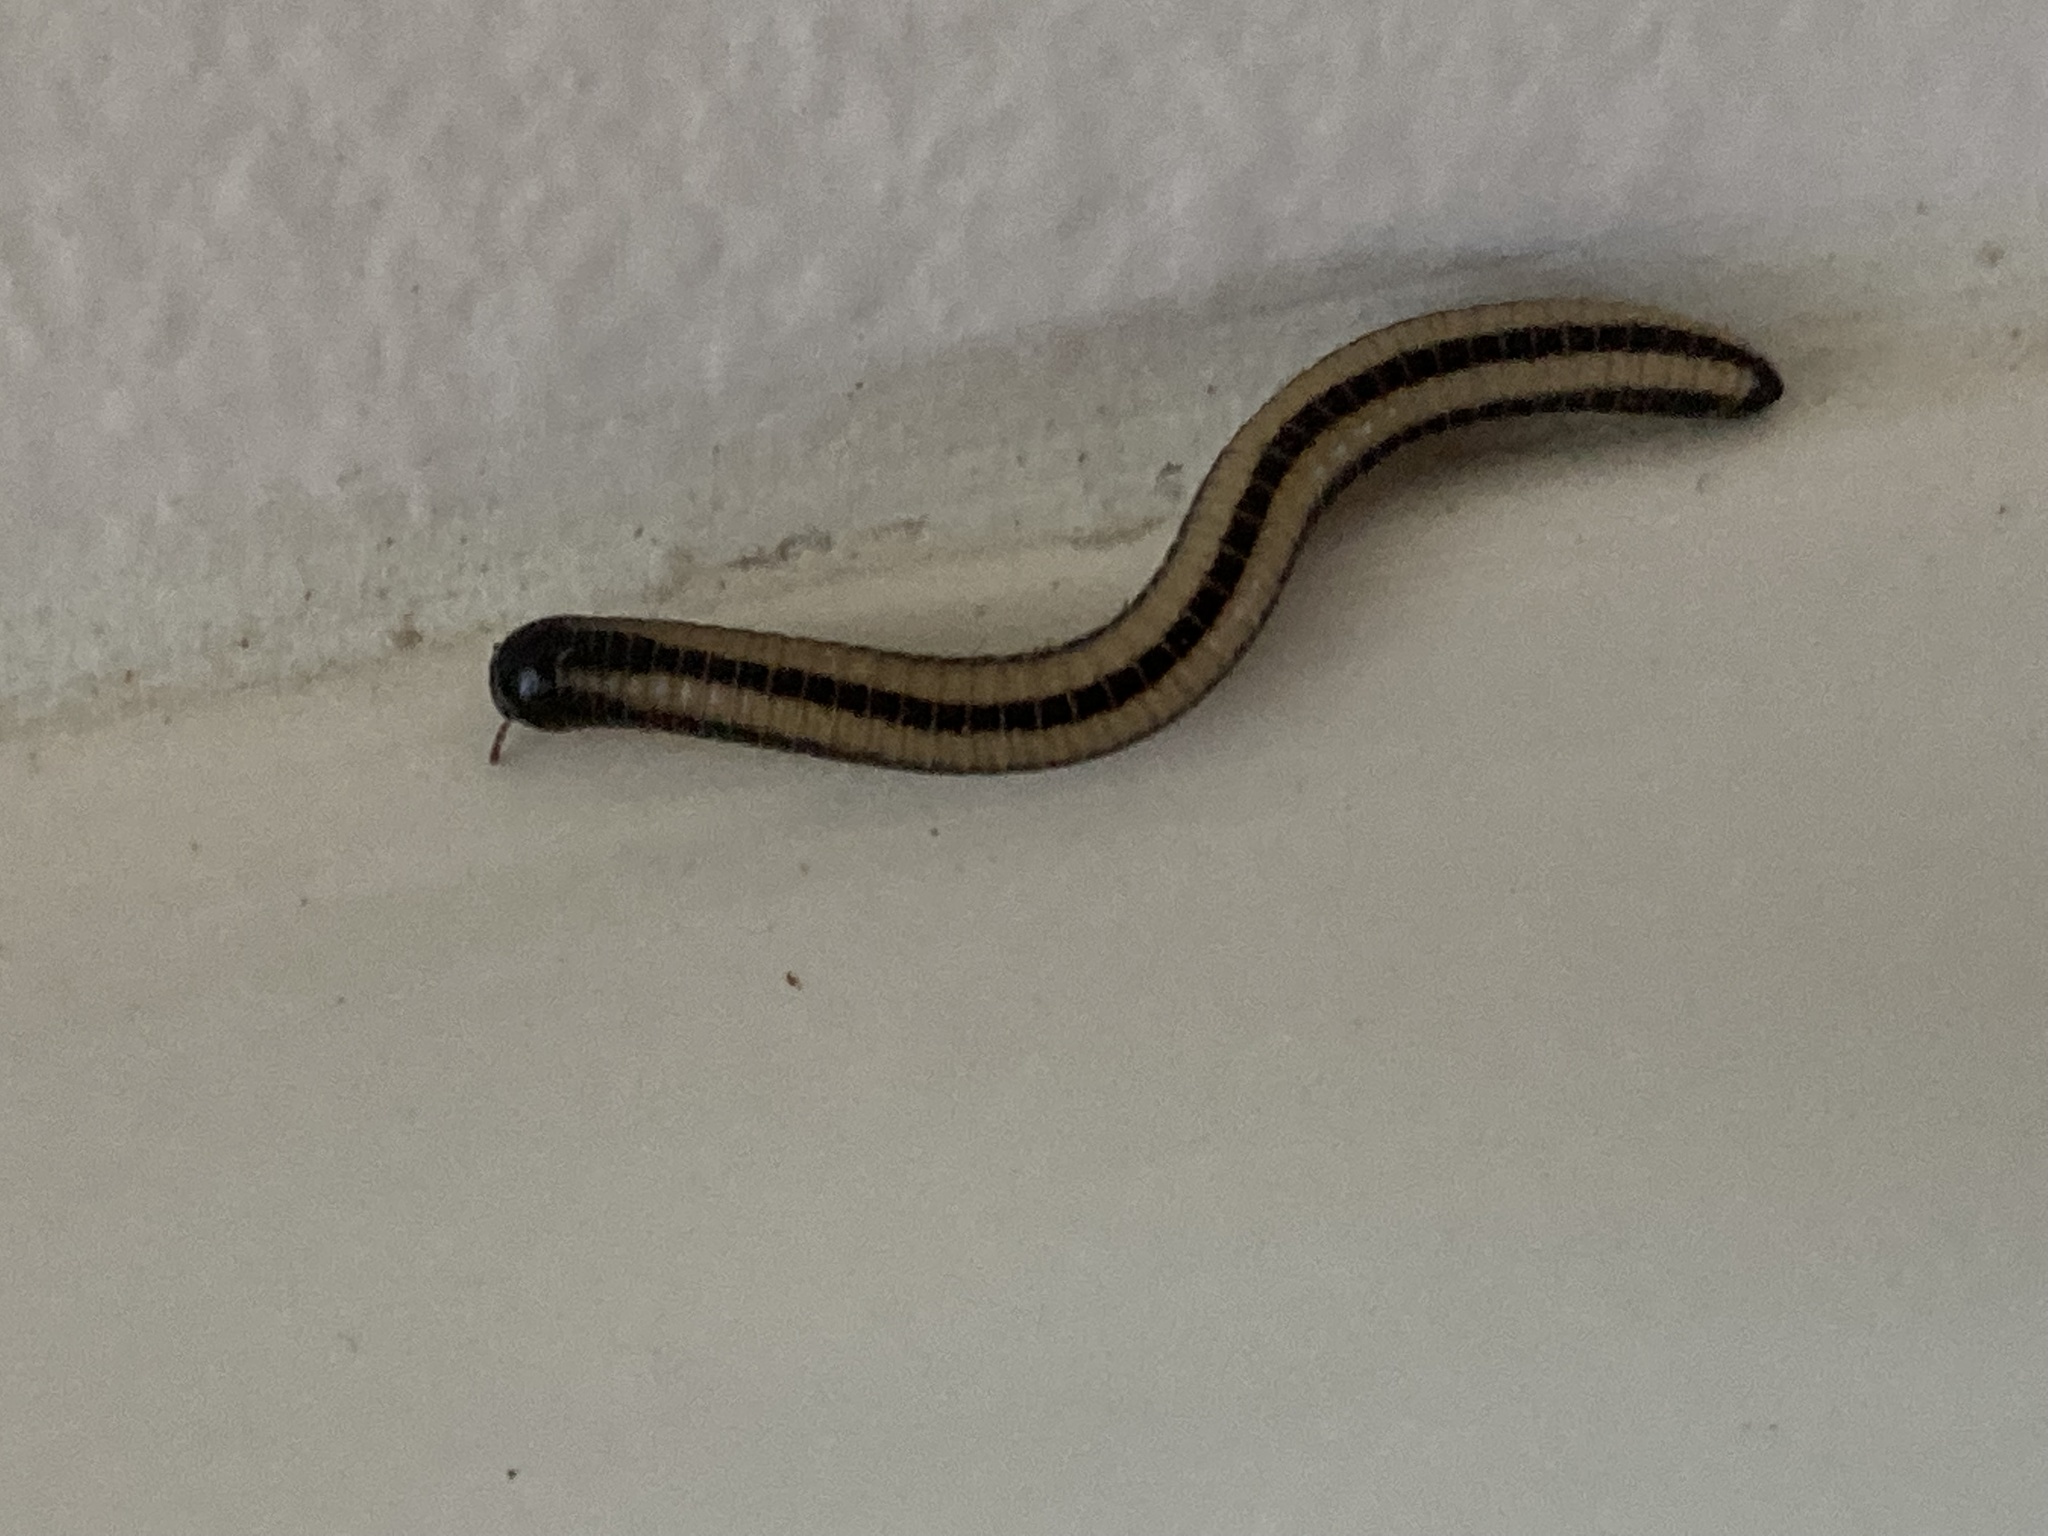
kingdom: Animalia
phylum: Arthropoda
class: Diplopoda
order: Spirobolida
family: Spirobolellidae
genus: Spirobolellus
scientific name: Spirobolellus immigrans
